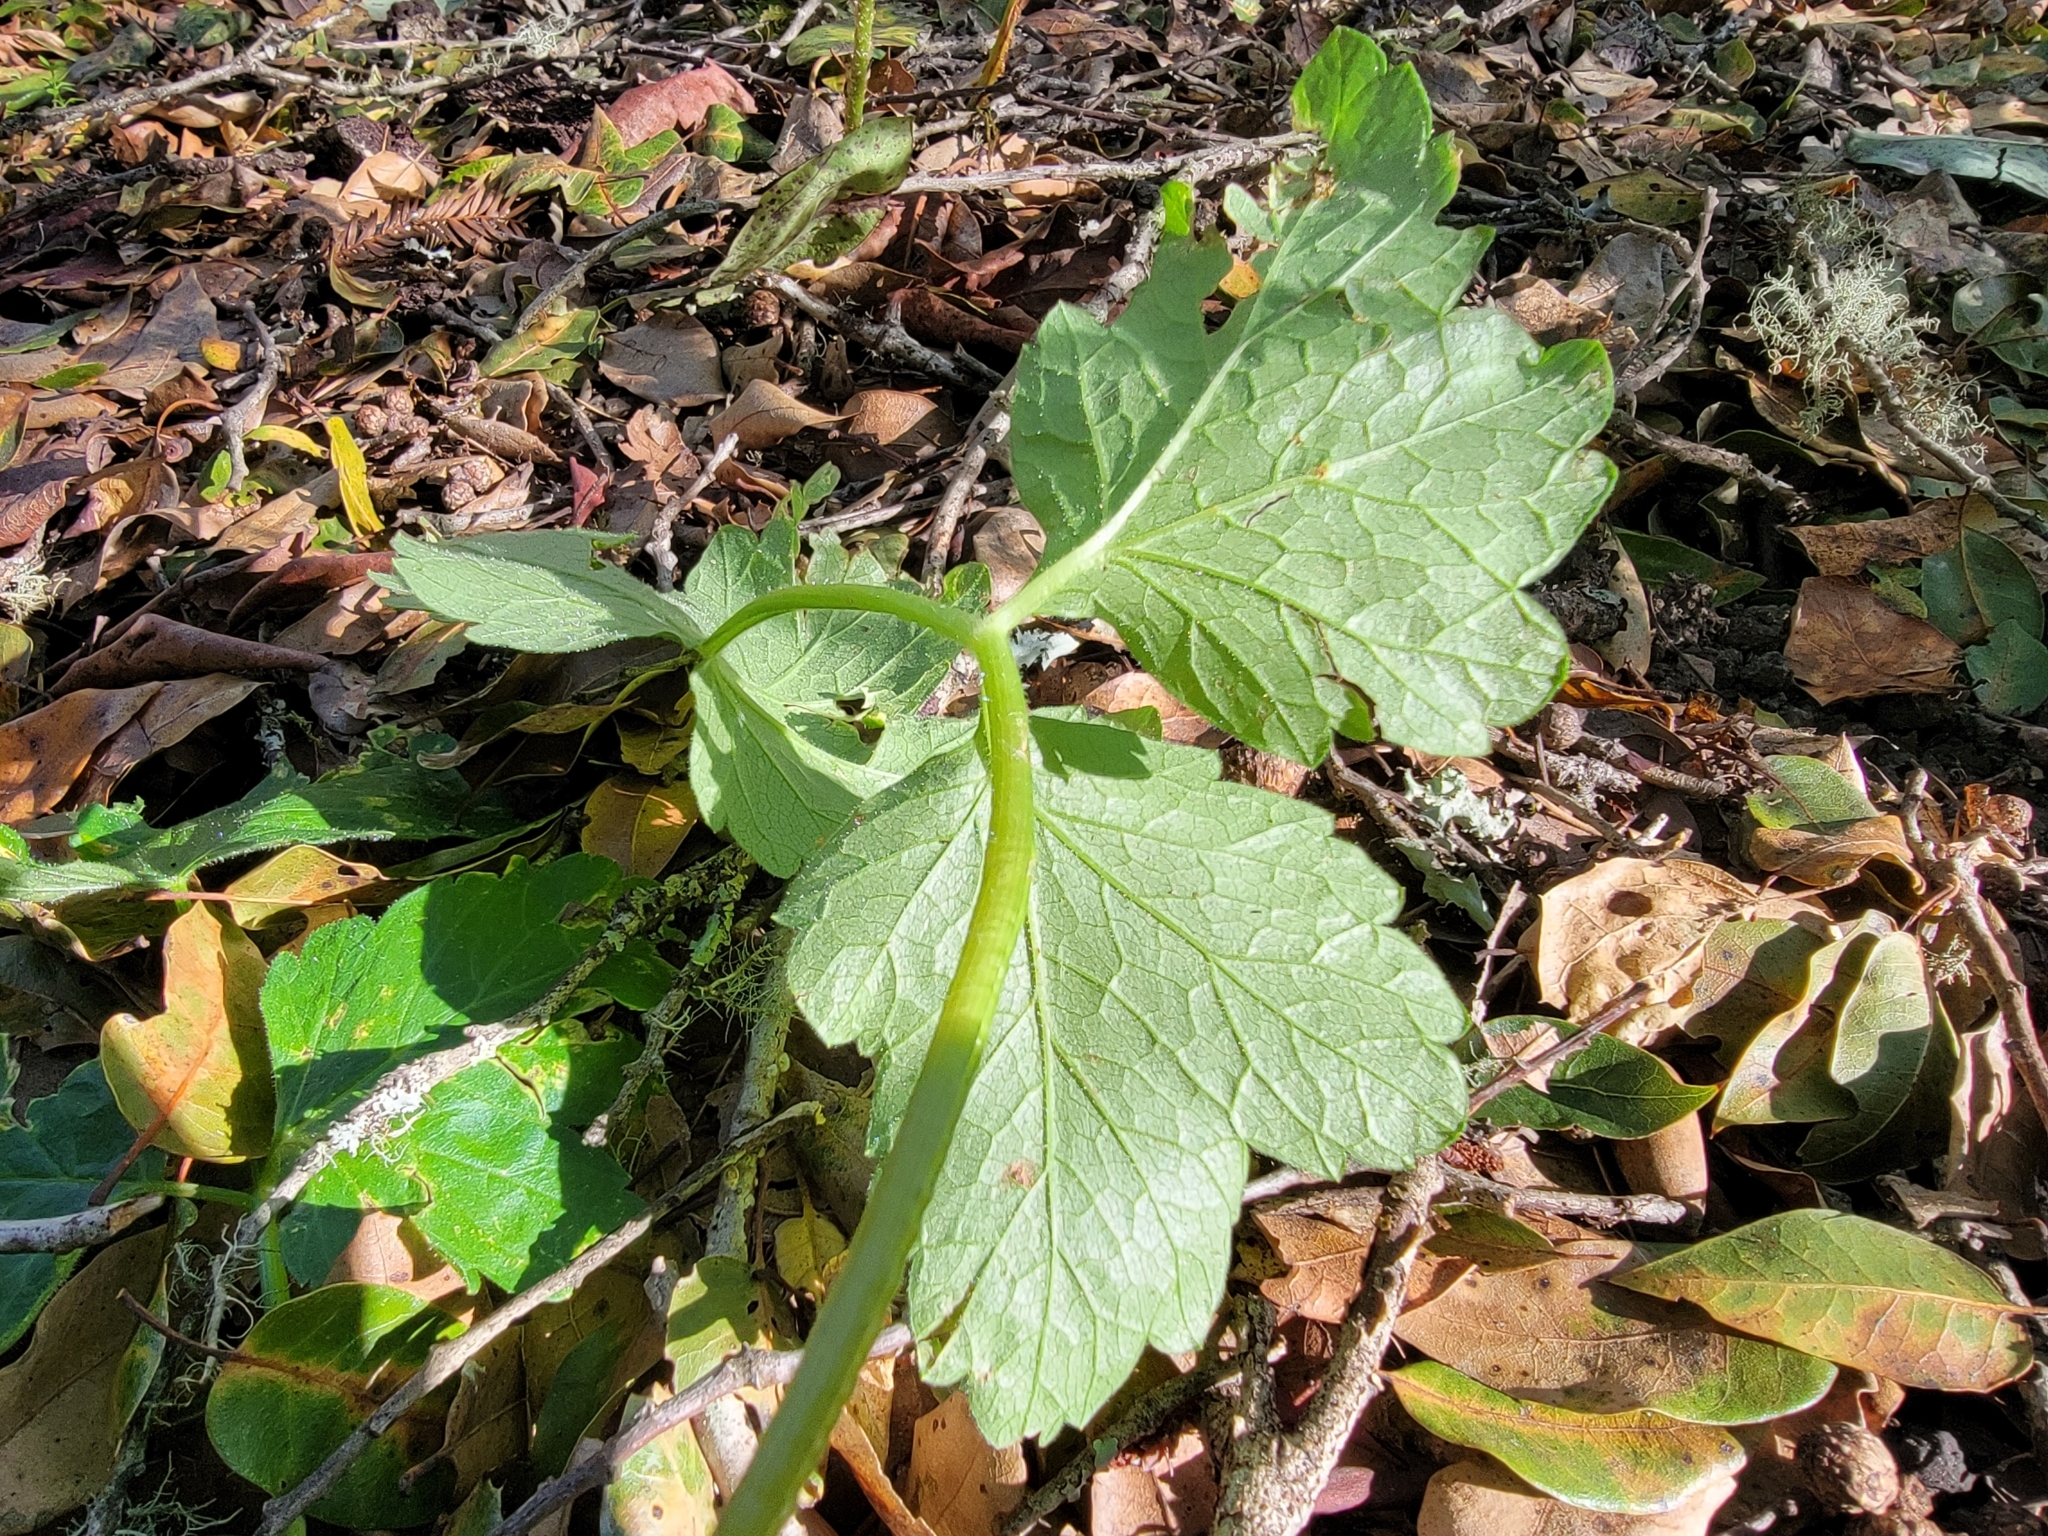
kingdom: Plantae
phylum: Tracheophyta
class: Magnoliopsida
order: Apiales
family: Apiaceae
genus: Heracleum
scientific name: Heracleum maximum
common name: American cow parsnip
